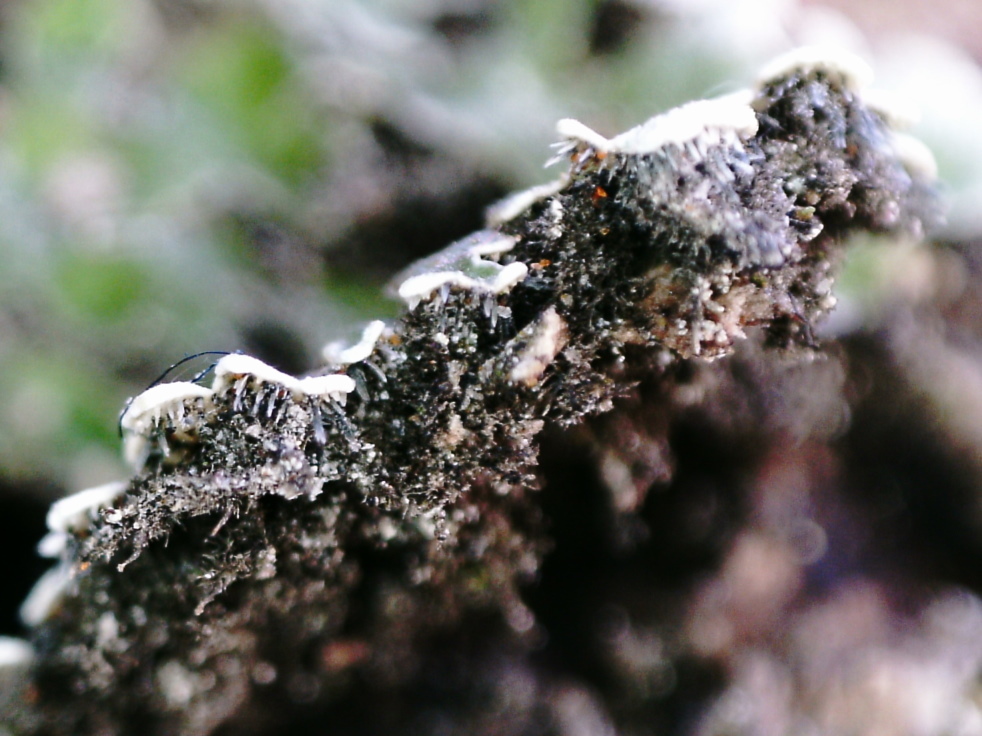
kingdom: Fungi
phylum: Ascomycota
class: Lecanoromycetes
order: Caliciales
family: Physciaceae
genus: Physconia
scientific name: Physconia distorta
